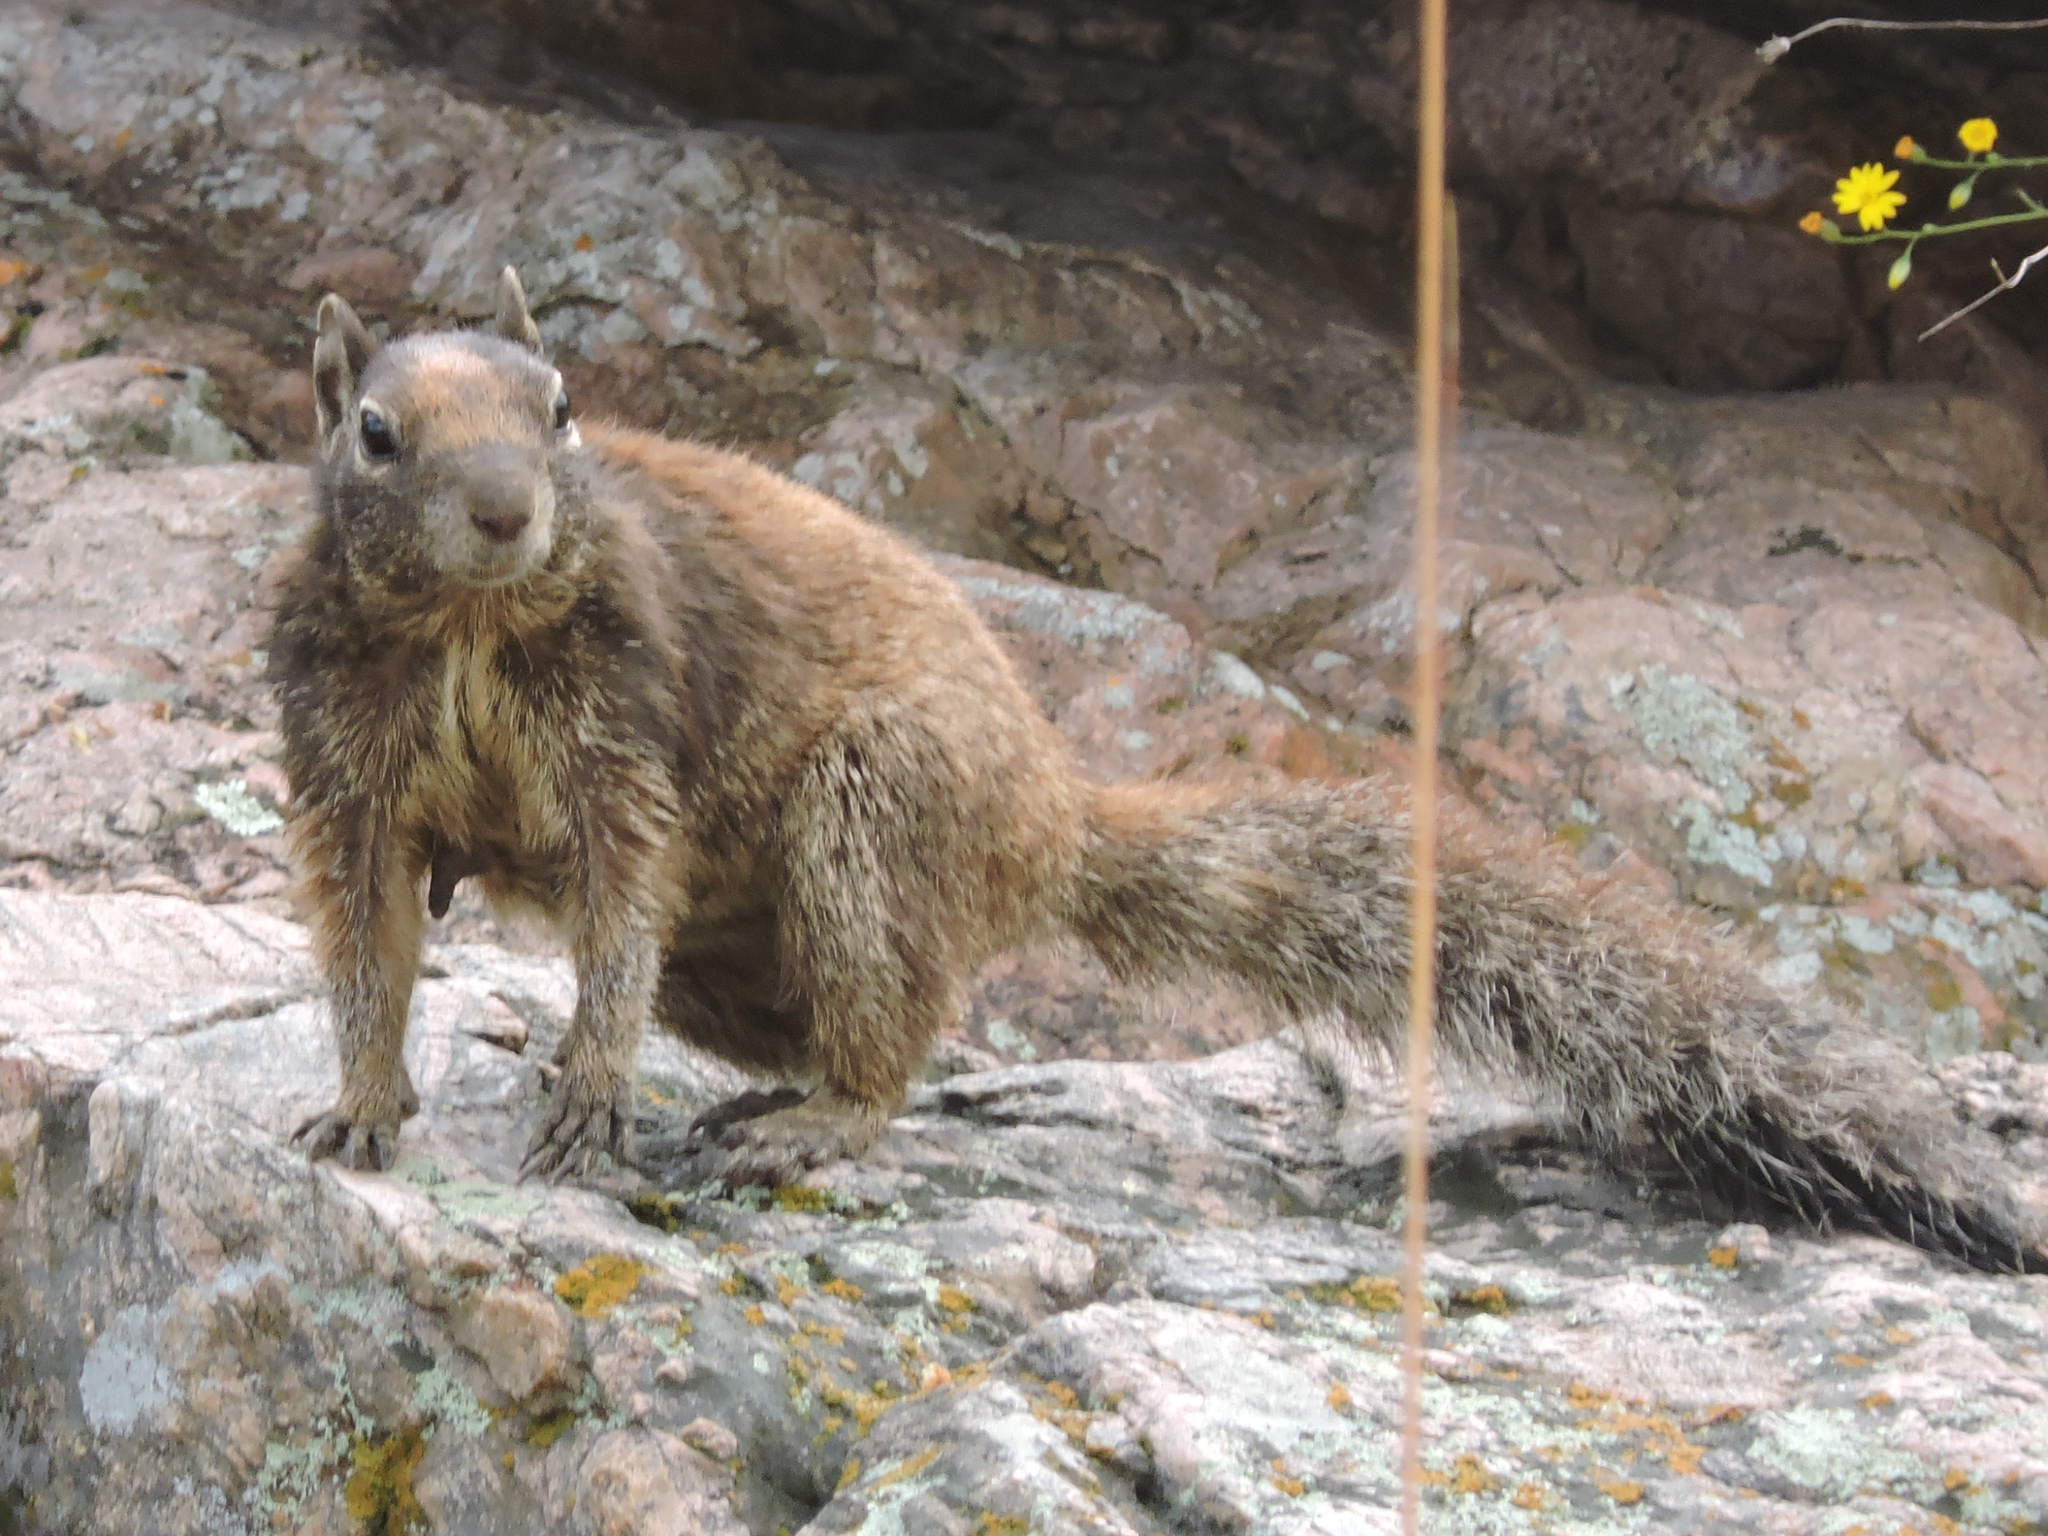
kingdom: Animalia
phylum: Chordata
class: Mammalia
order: Rodentia
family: Sciuridae
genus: Otospermophilus
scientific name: Otospermophilus variegatus
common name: Rock squirrel
